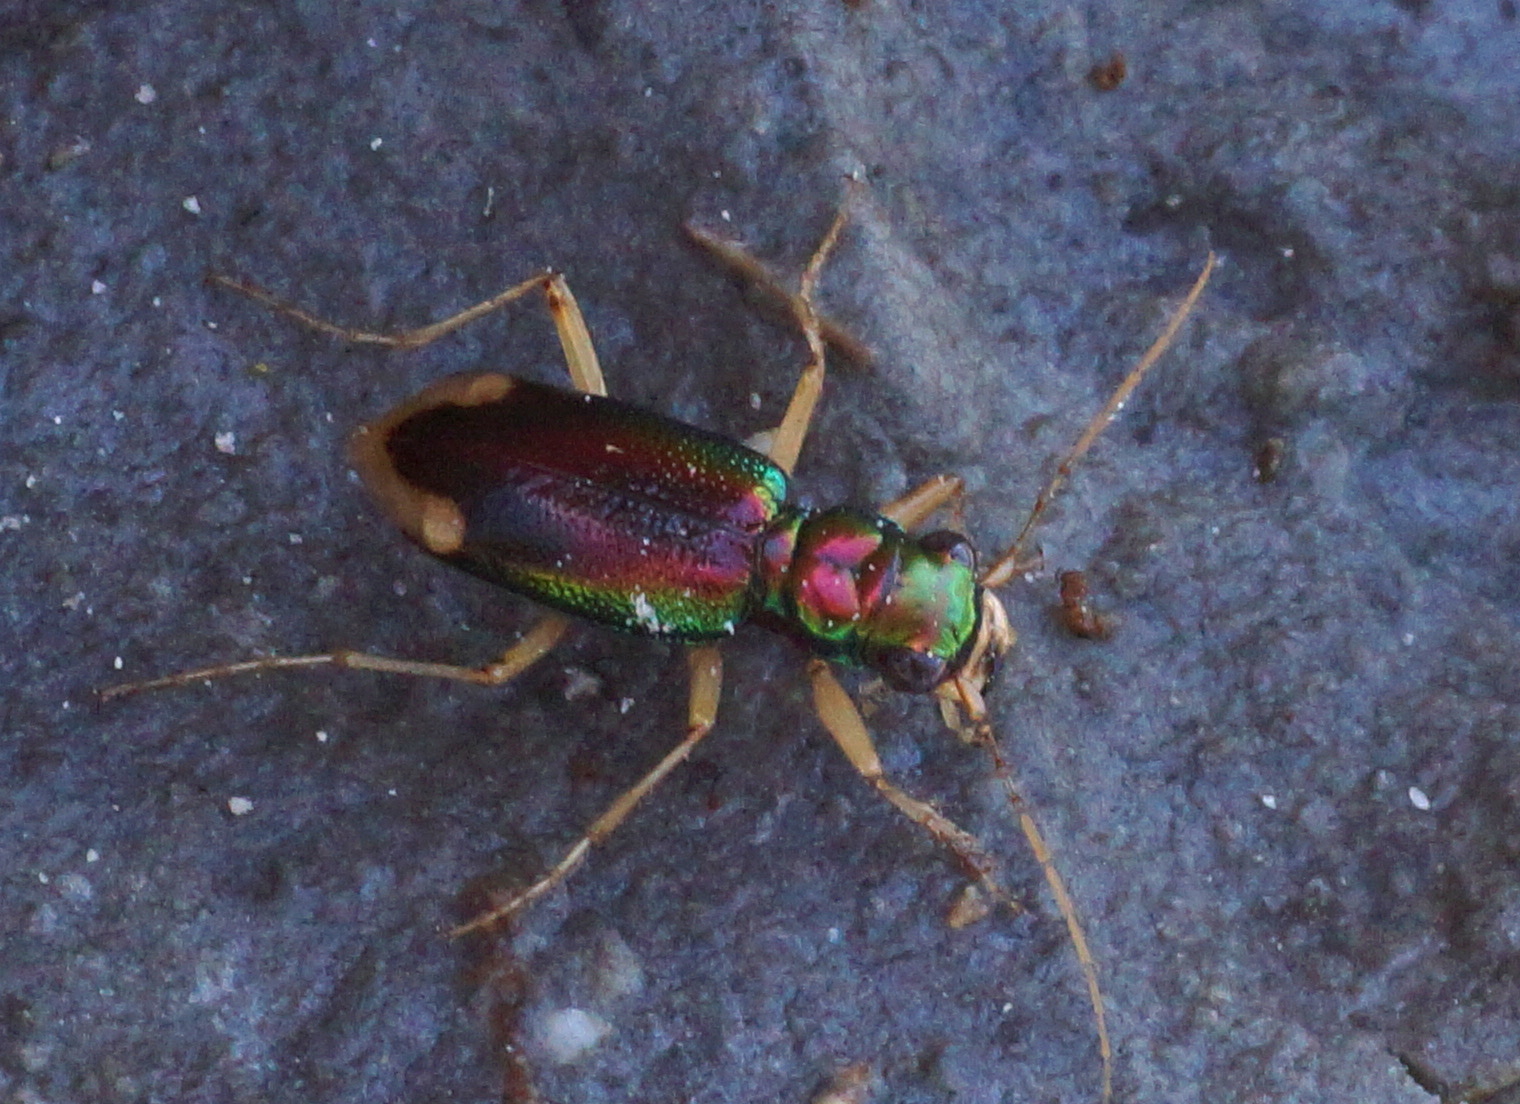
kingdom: Animalia
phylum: Arthropoda
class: Insecta
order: Coleoptera
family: Carabidae
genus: Tetracha
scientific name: Tetracha carolina
